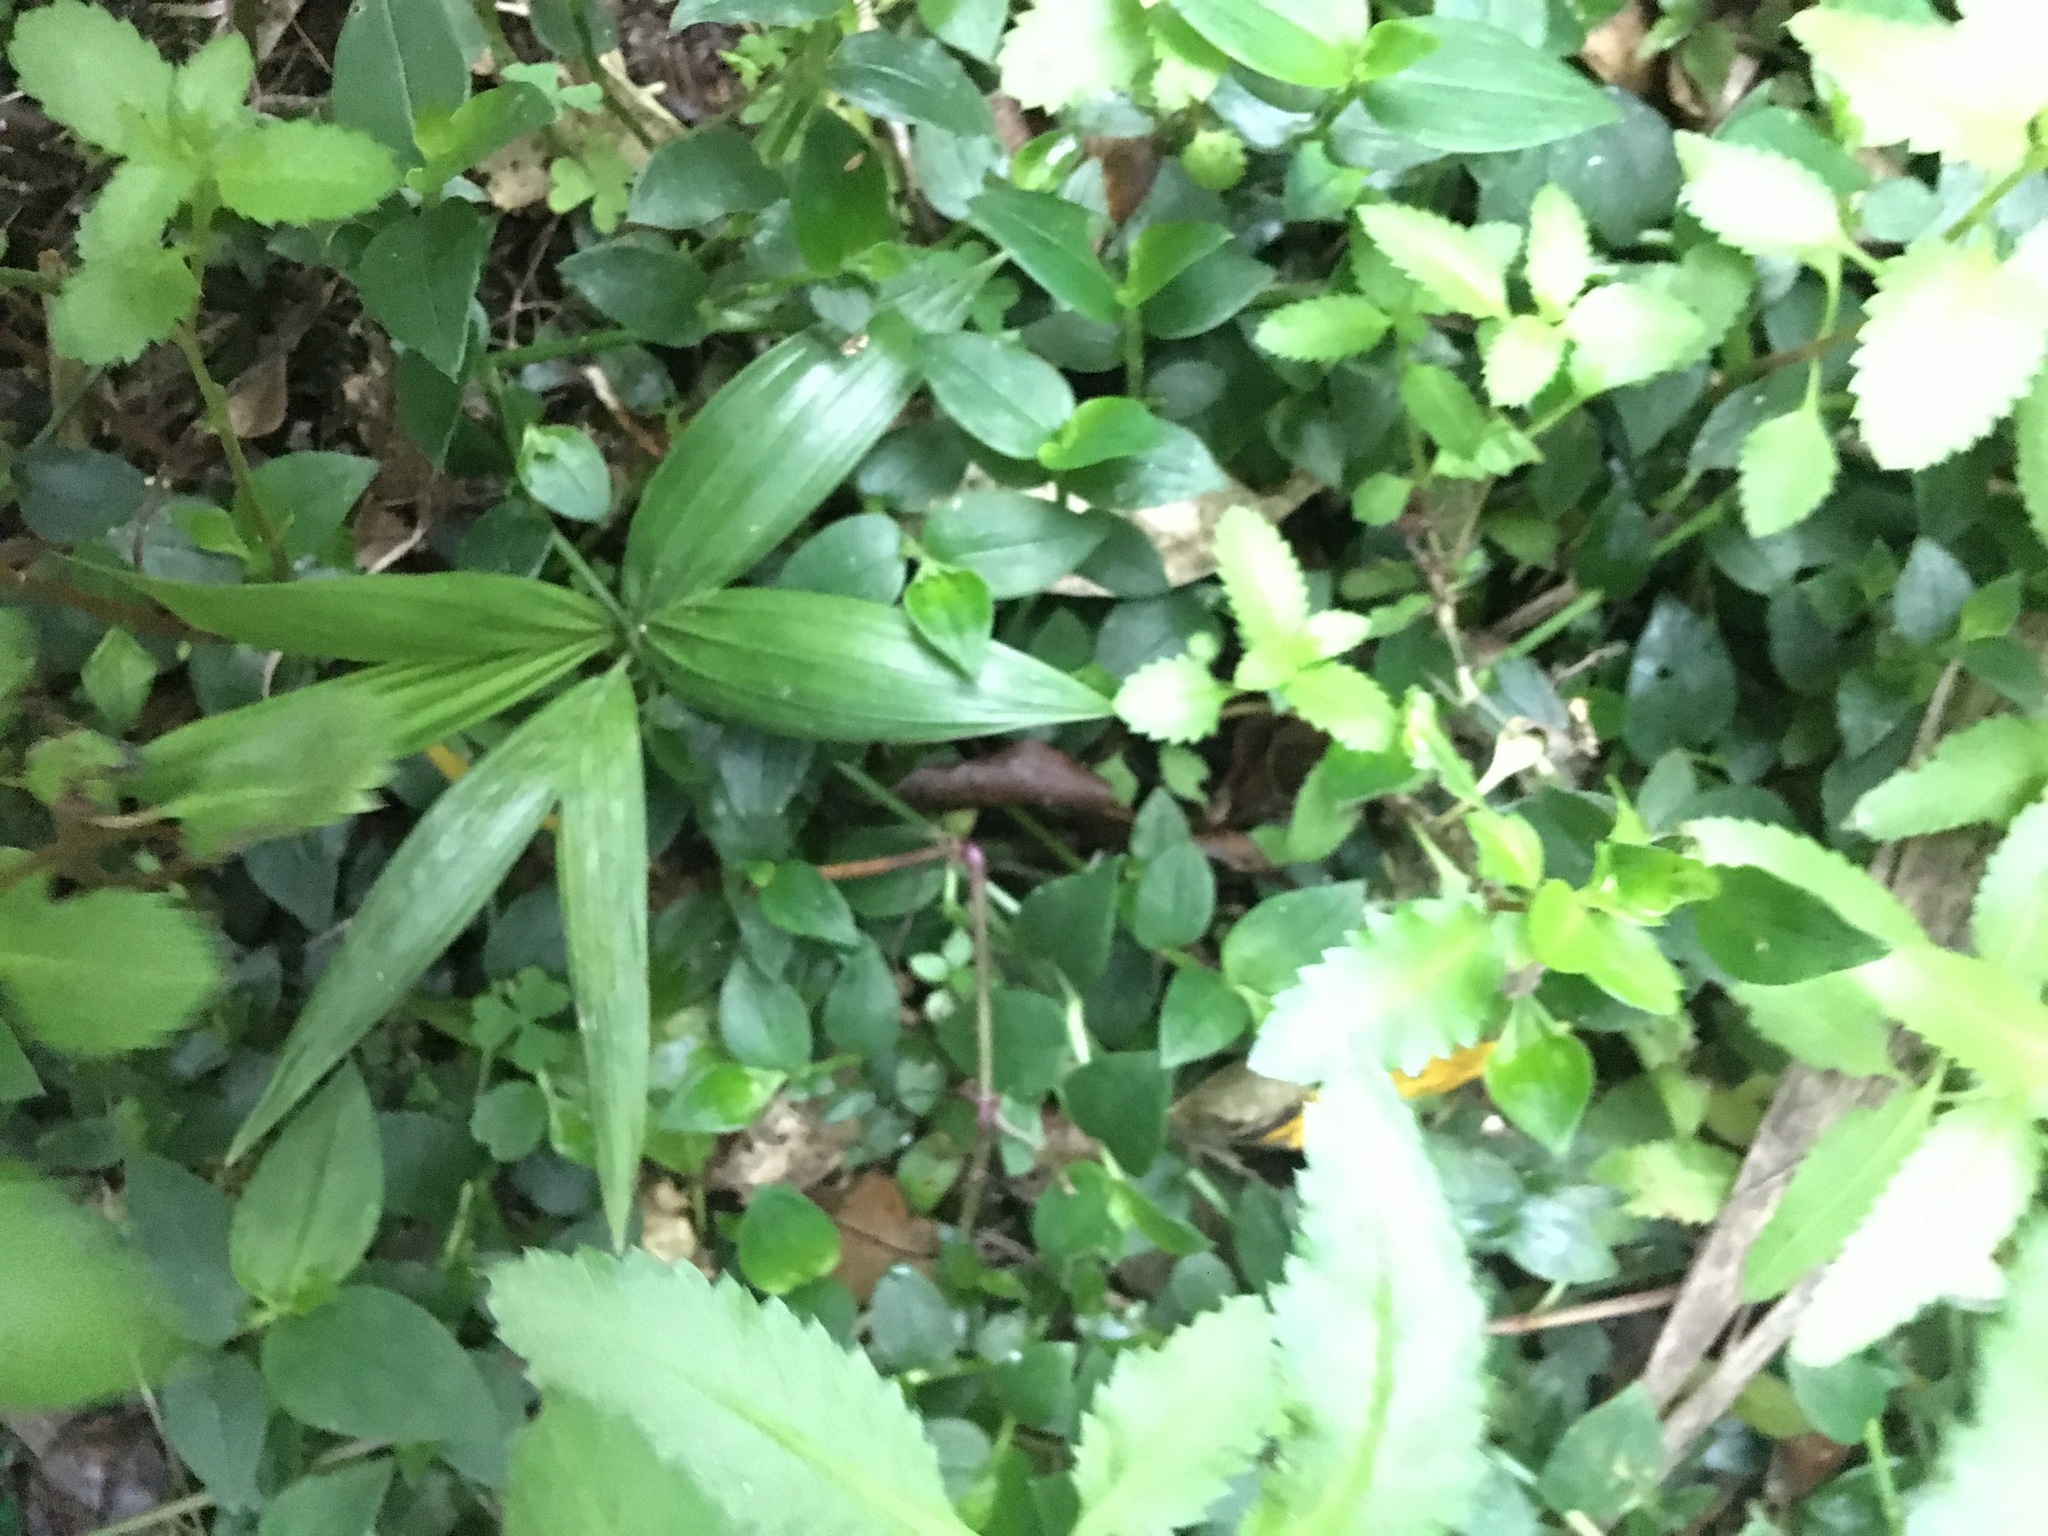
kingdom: Plantae
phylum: Tracheophyta
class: Liliopsida
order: Arecales
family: Arecaceae
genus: Archontophoenix
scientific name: Archontophoenix cunninghamiana
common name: Piccabeen bangalow palm
